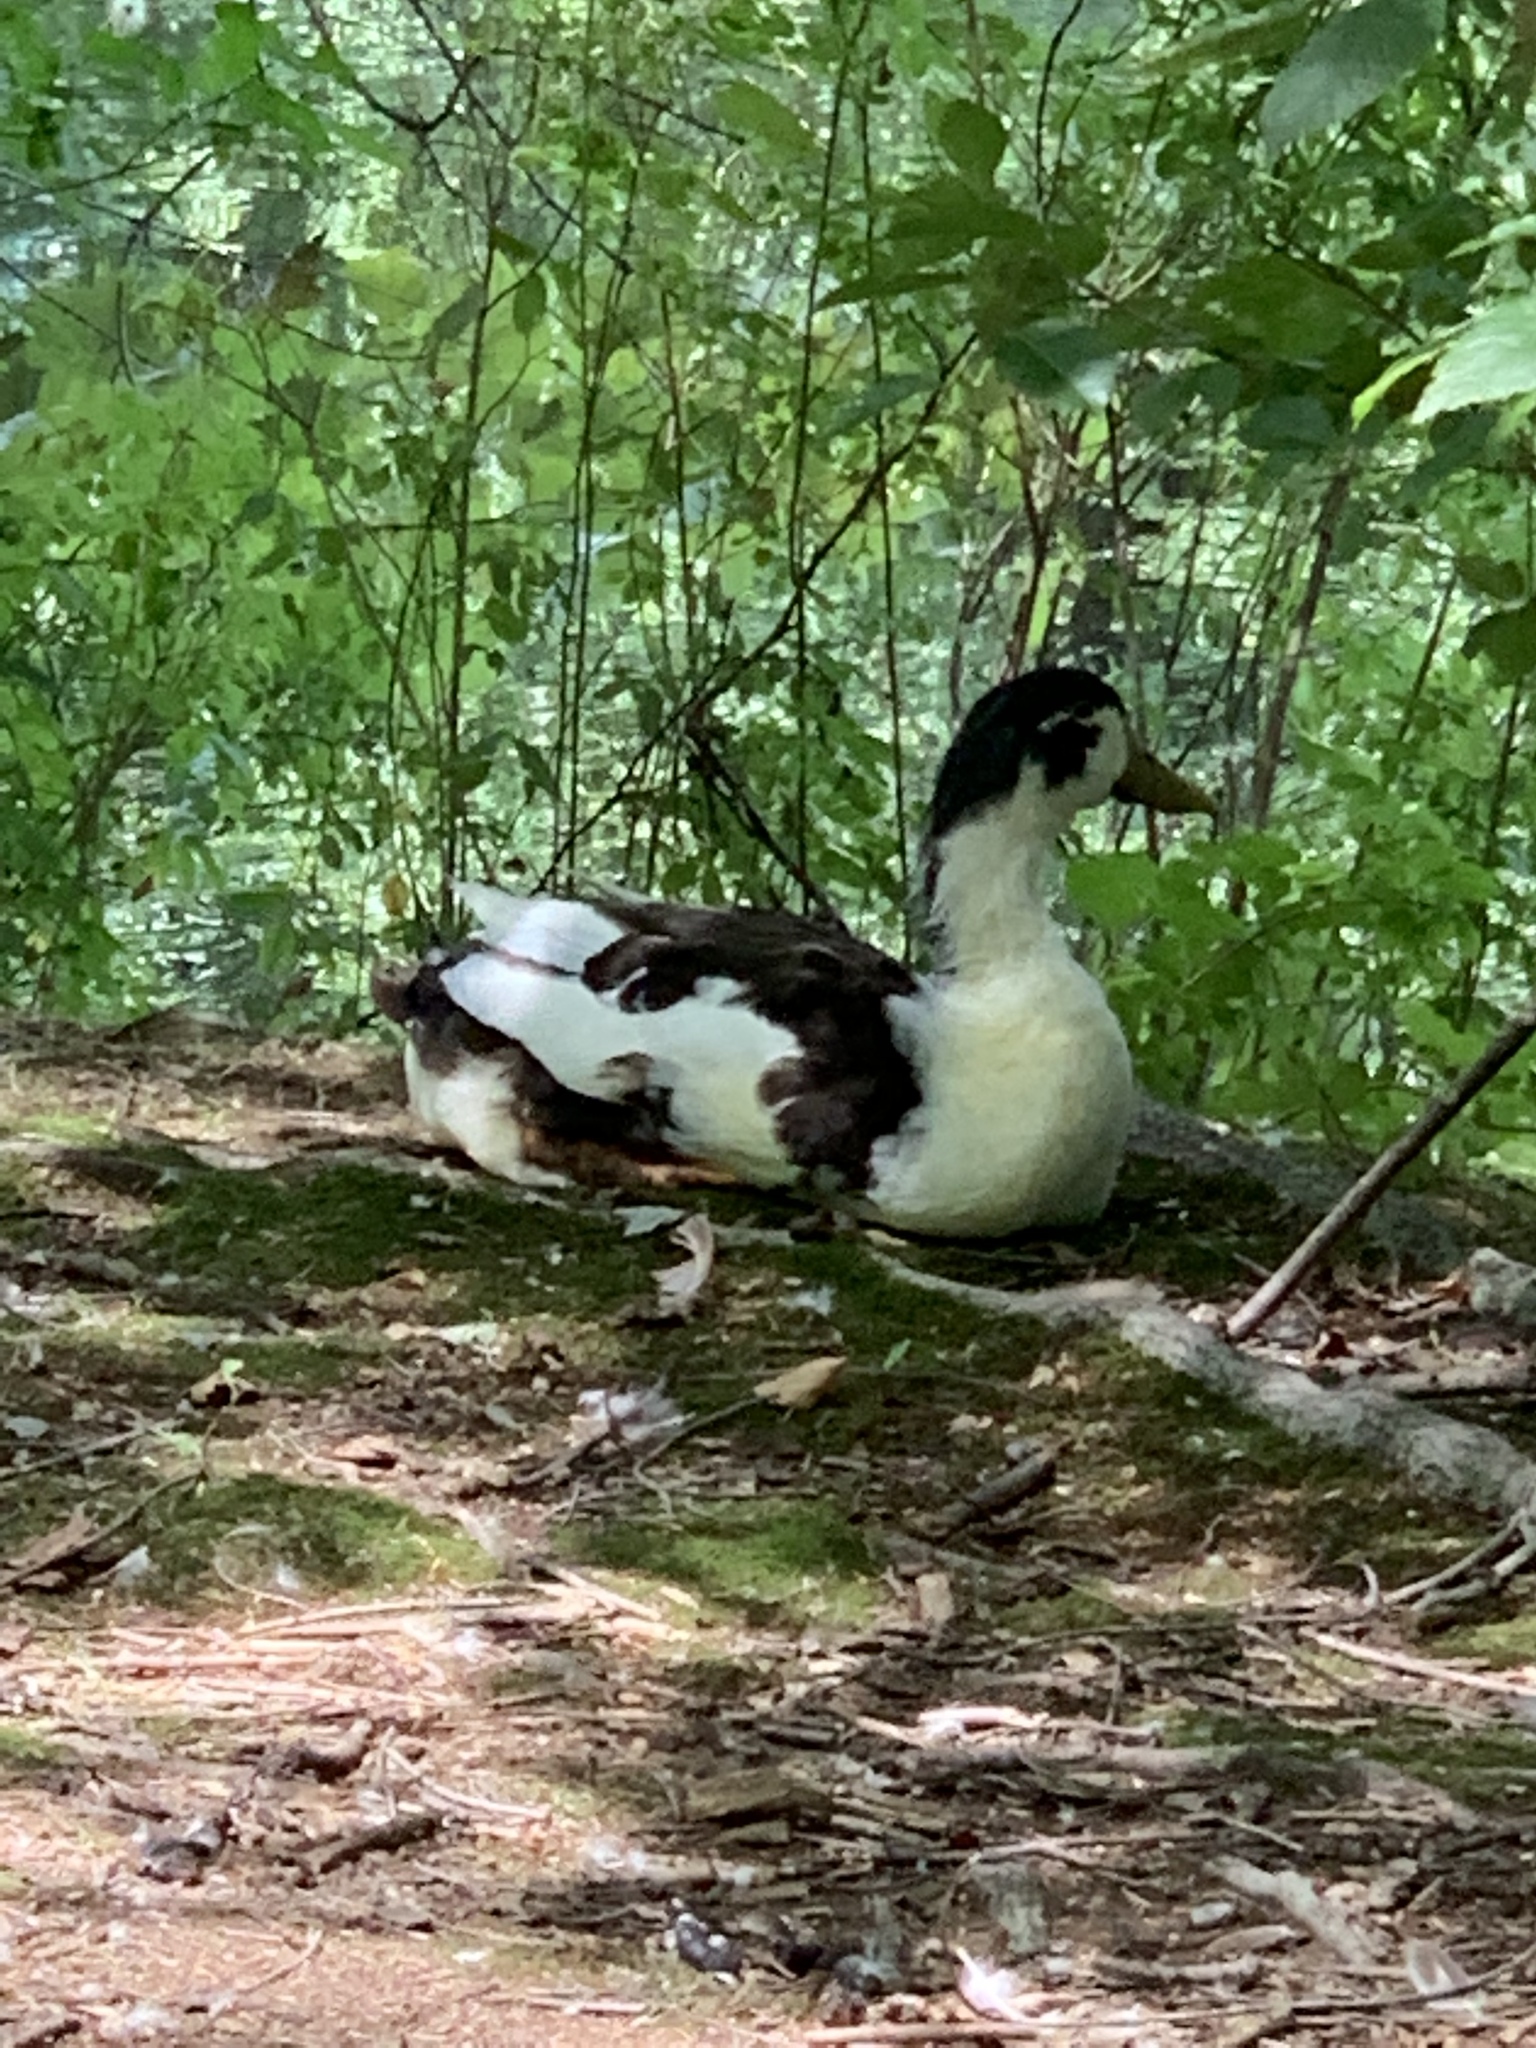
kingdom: Animalia
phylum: Chordata
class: Aves
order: Anseriformes
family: Anatidae
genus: Anas
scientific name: Anas platyrhynchos
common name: Mallard
